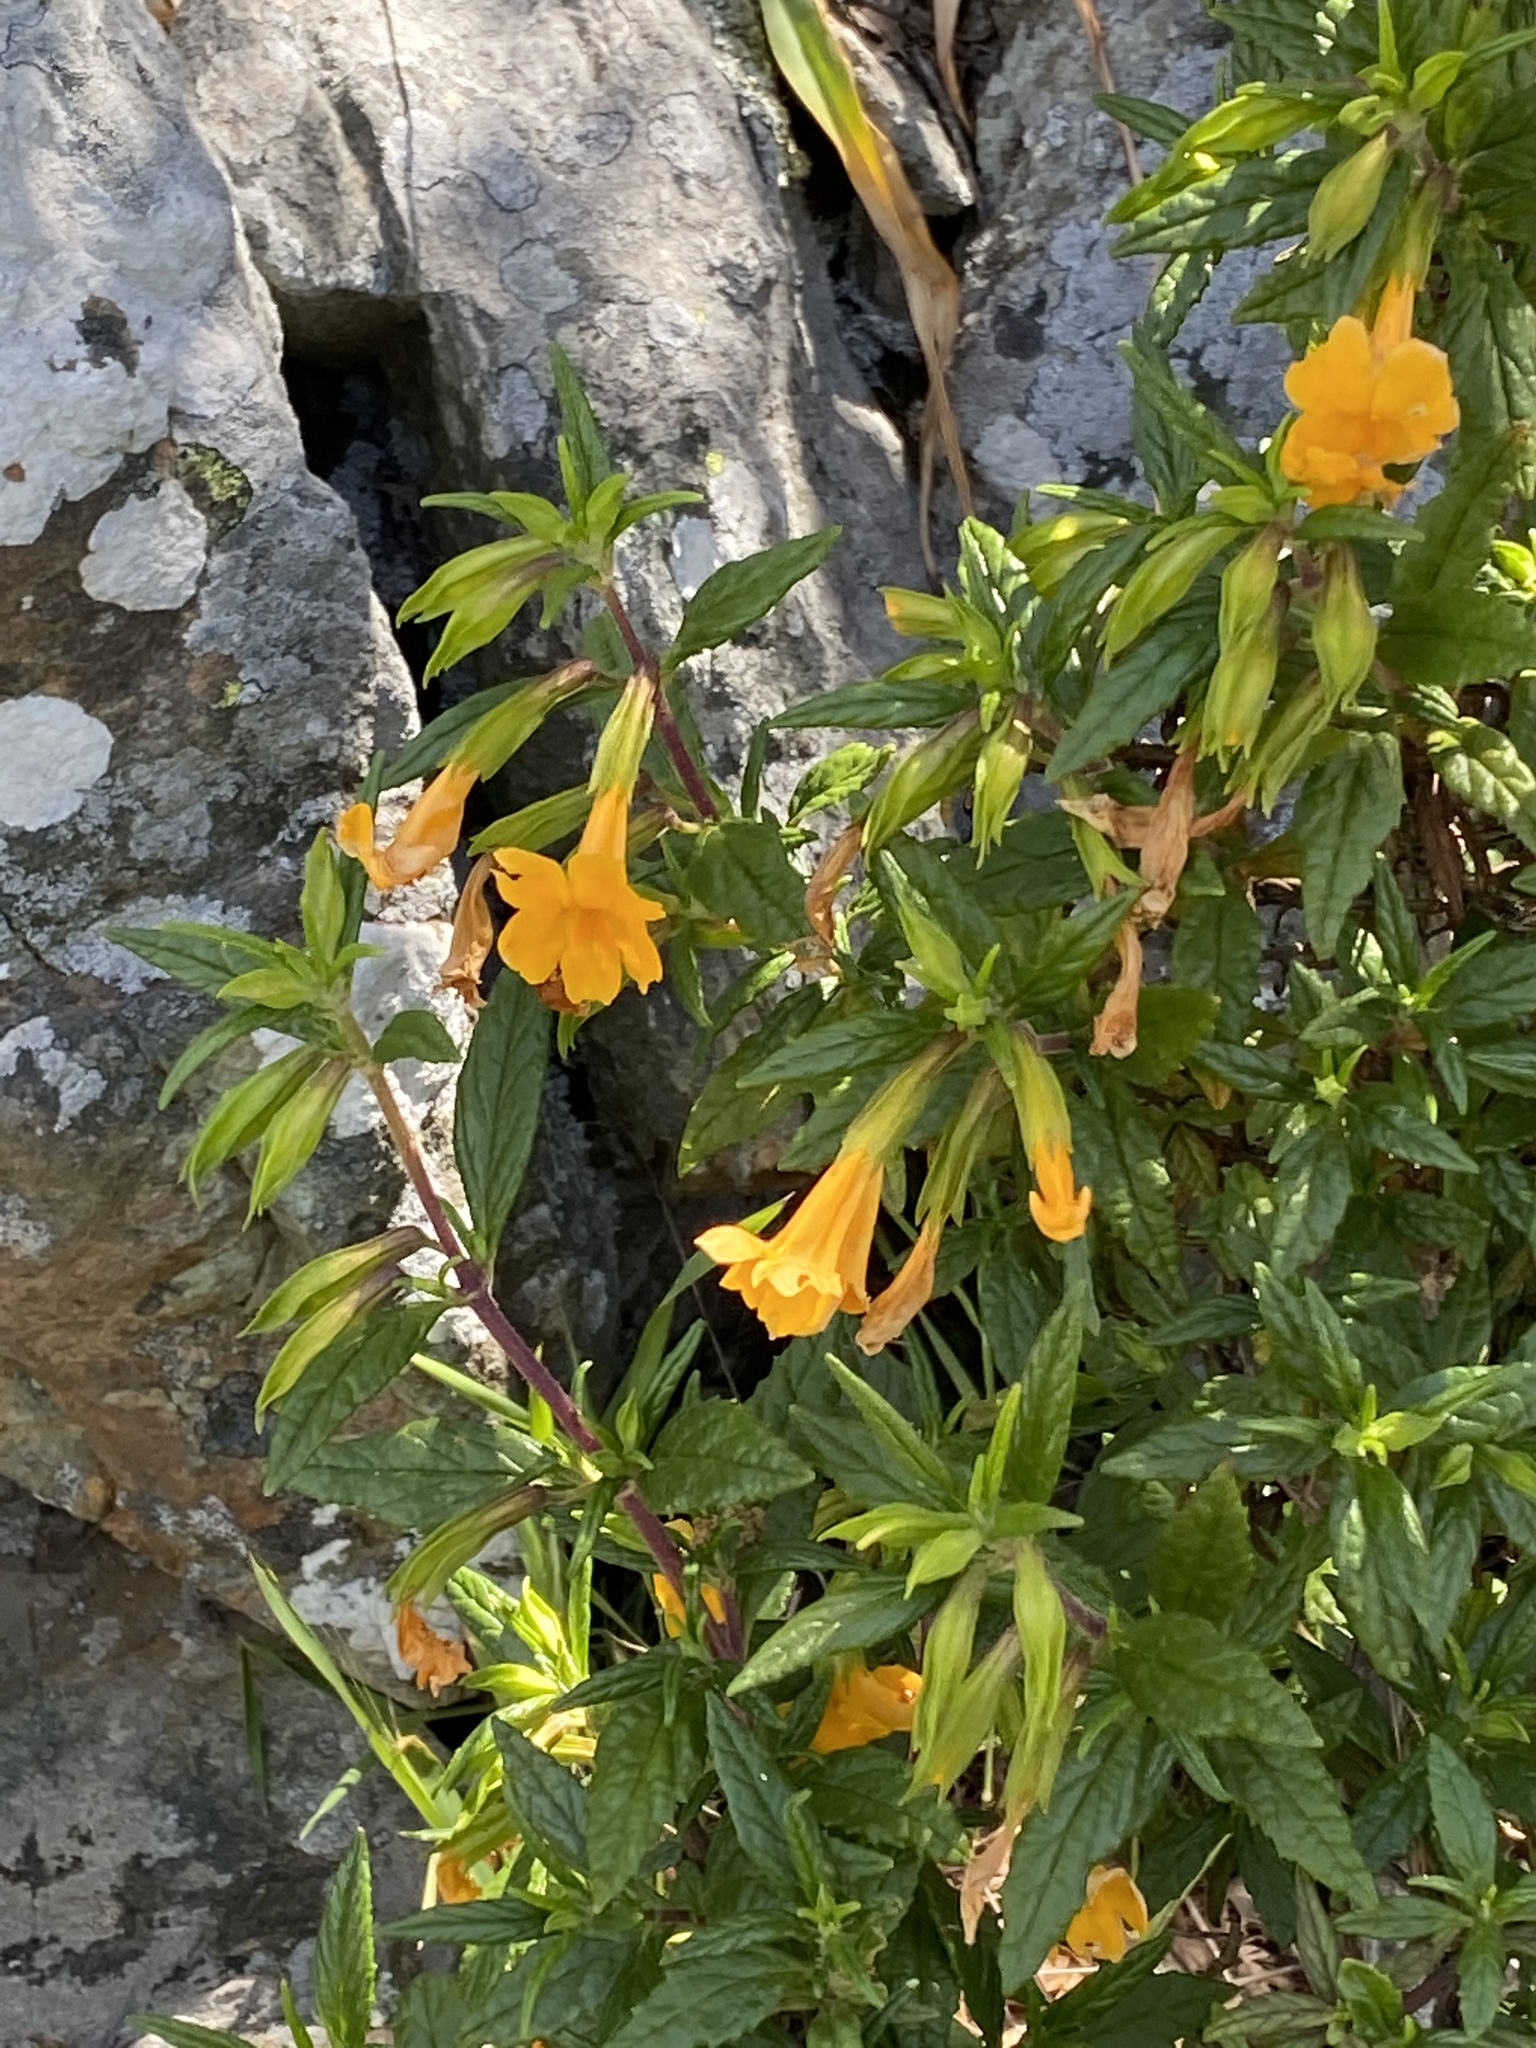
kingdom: Plantae
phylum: Tracheophyta
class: Magnoliopsida
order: Lamiales
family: Phrymaceae
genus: Diplacus
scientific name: Diplacus aurantiacus
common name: Bush monkey-flower
